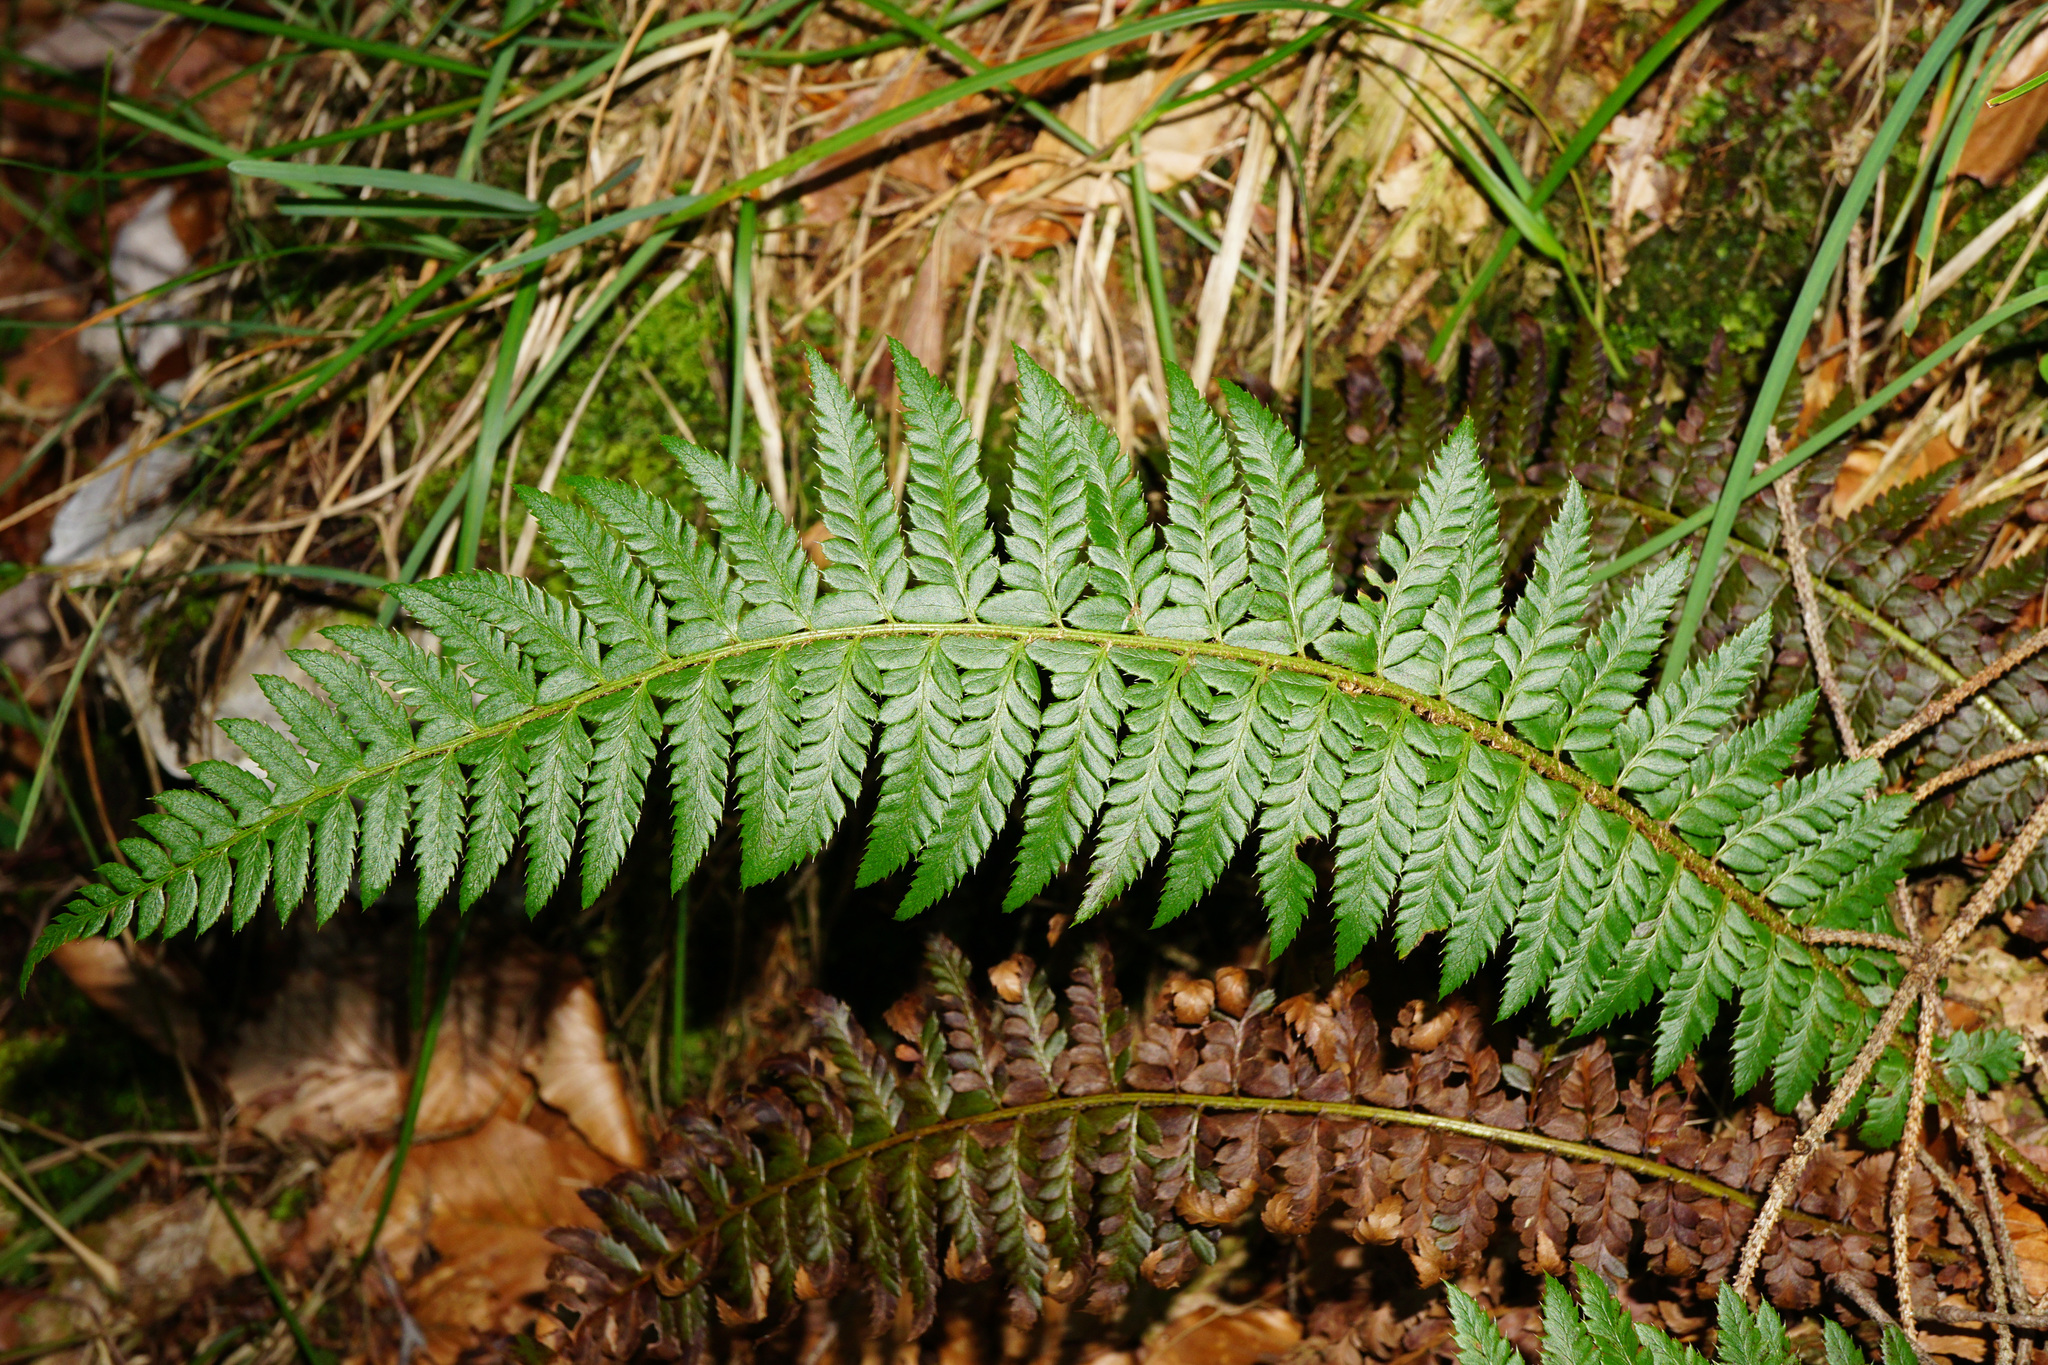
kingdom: Plantae
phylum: Tracheophyta
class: Polypodiopsida
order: Polypodiales
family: Dryopteridaceae
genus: Polystichum
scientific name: Polystichum aculeatum
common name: Hard shield-fern
